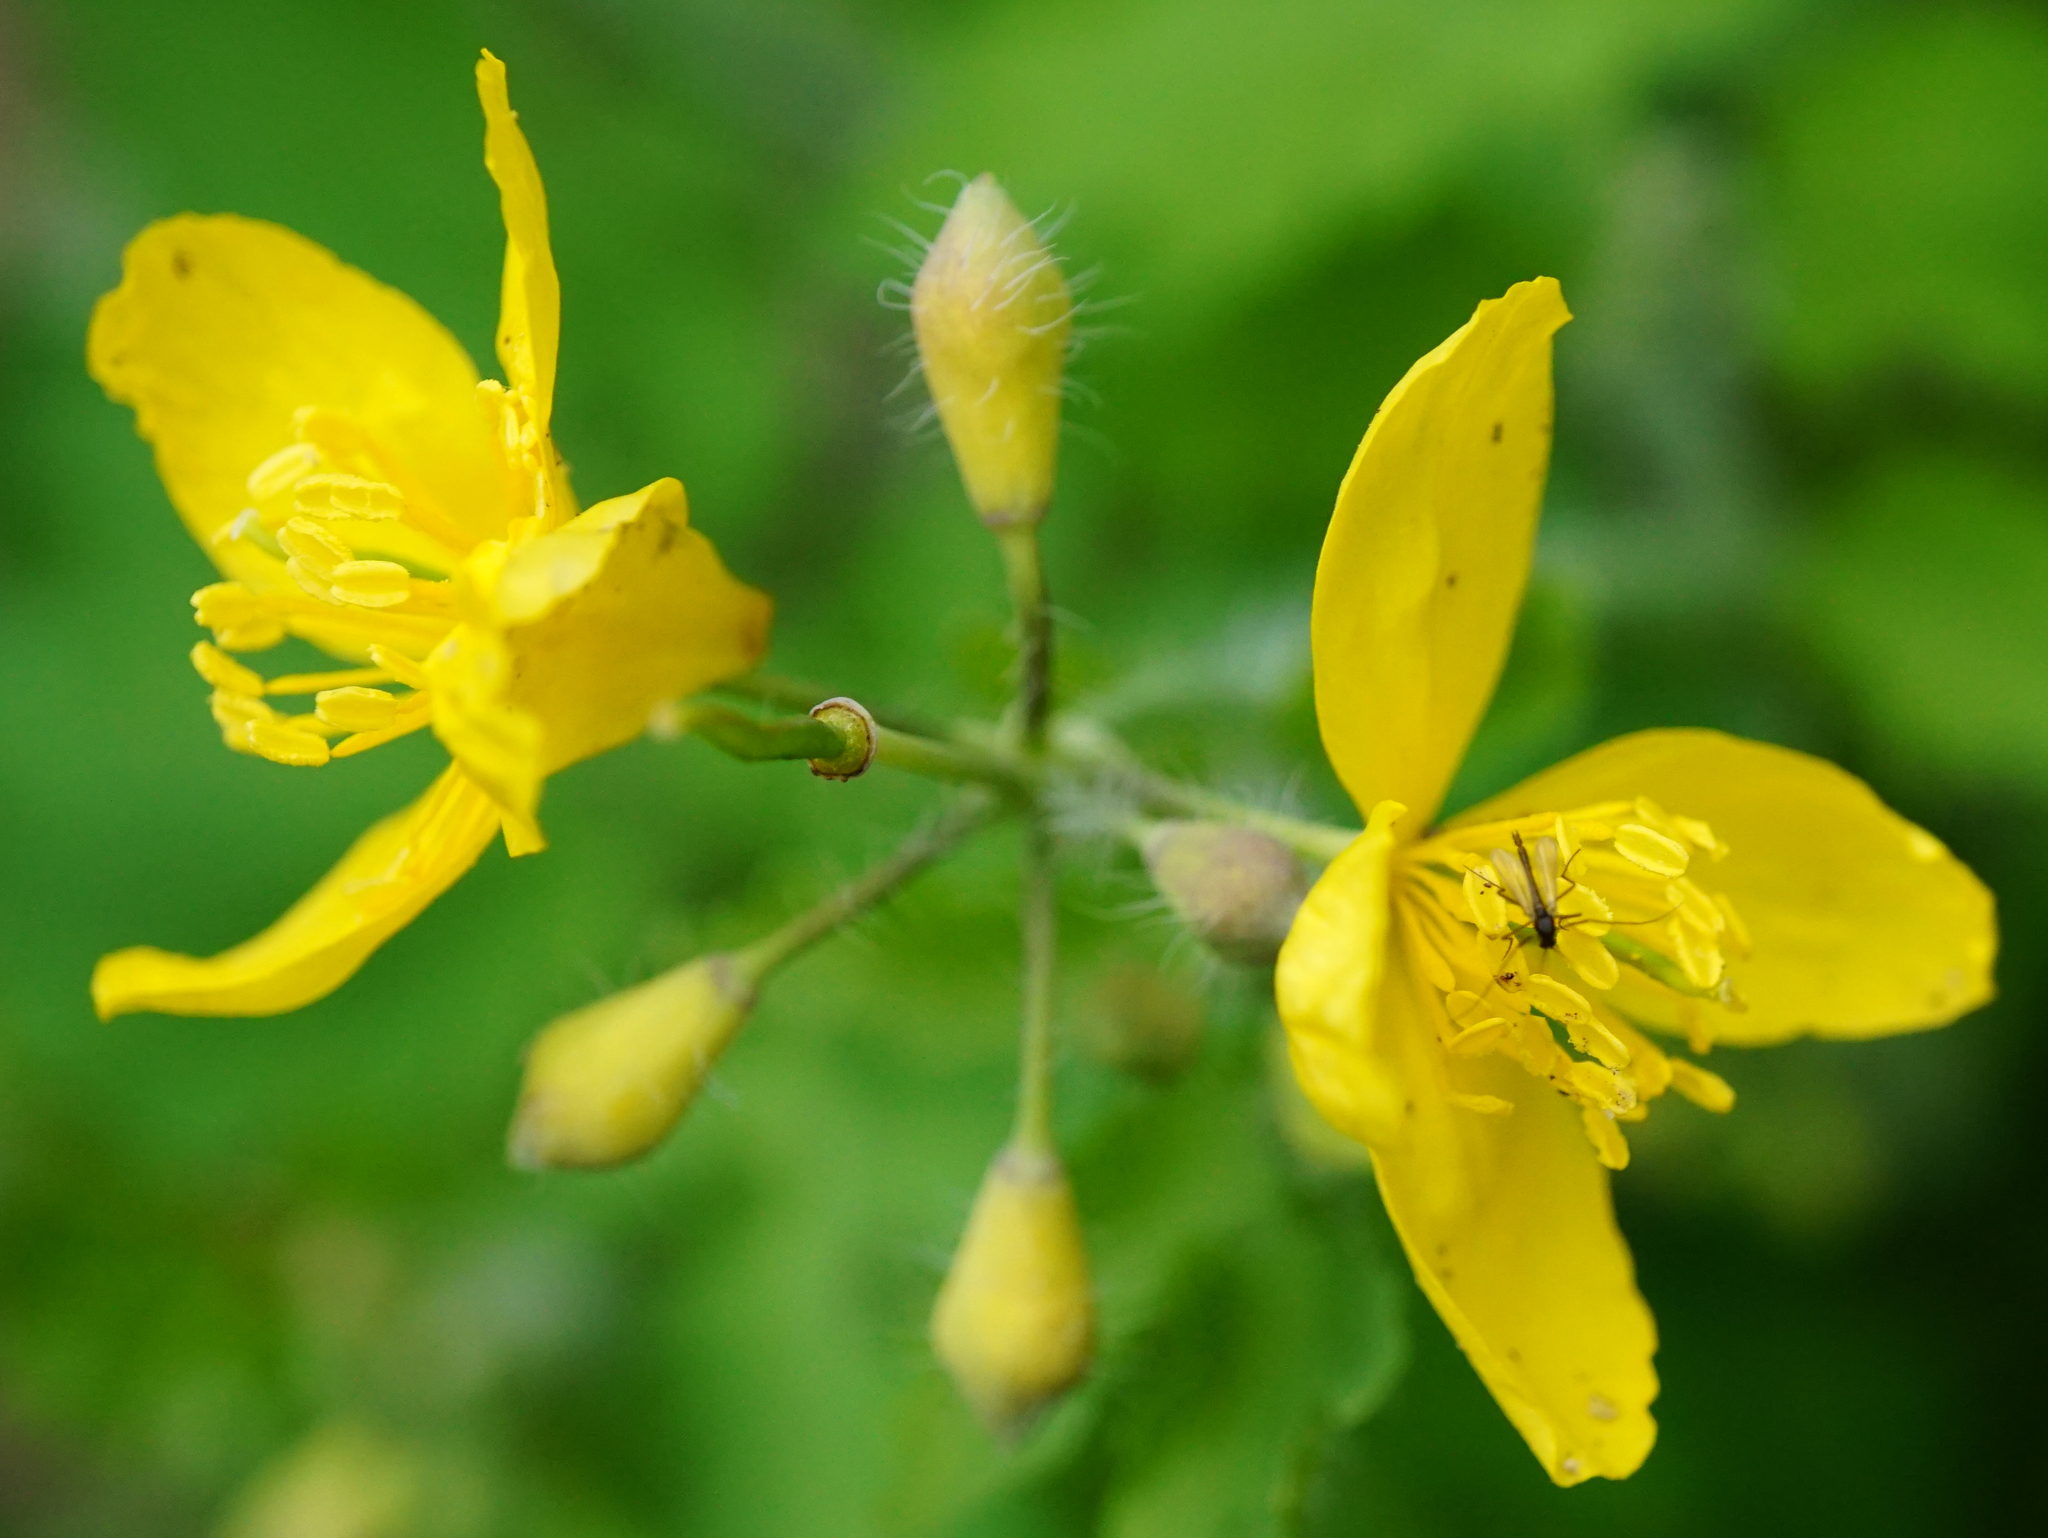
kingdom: Plantae
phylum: Tracheophyta
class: Magnoliopsida
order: Ranunculales
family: Papaveraceae
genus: Chelidonium
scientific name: Chelidonium majus
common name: Greater celandine
